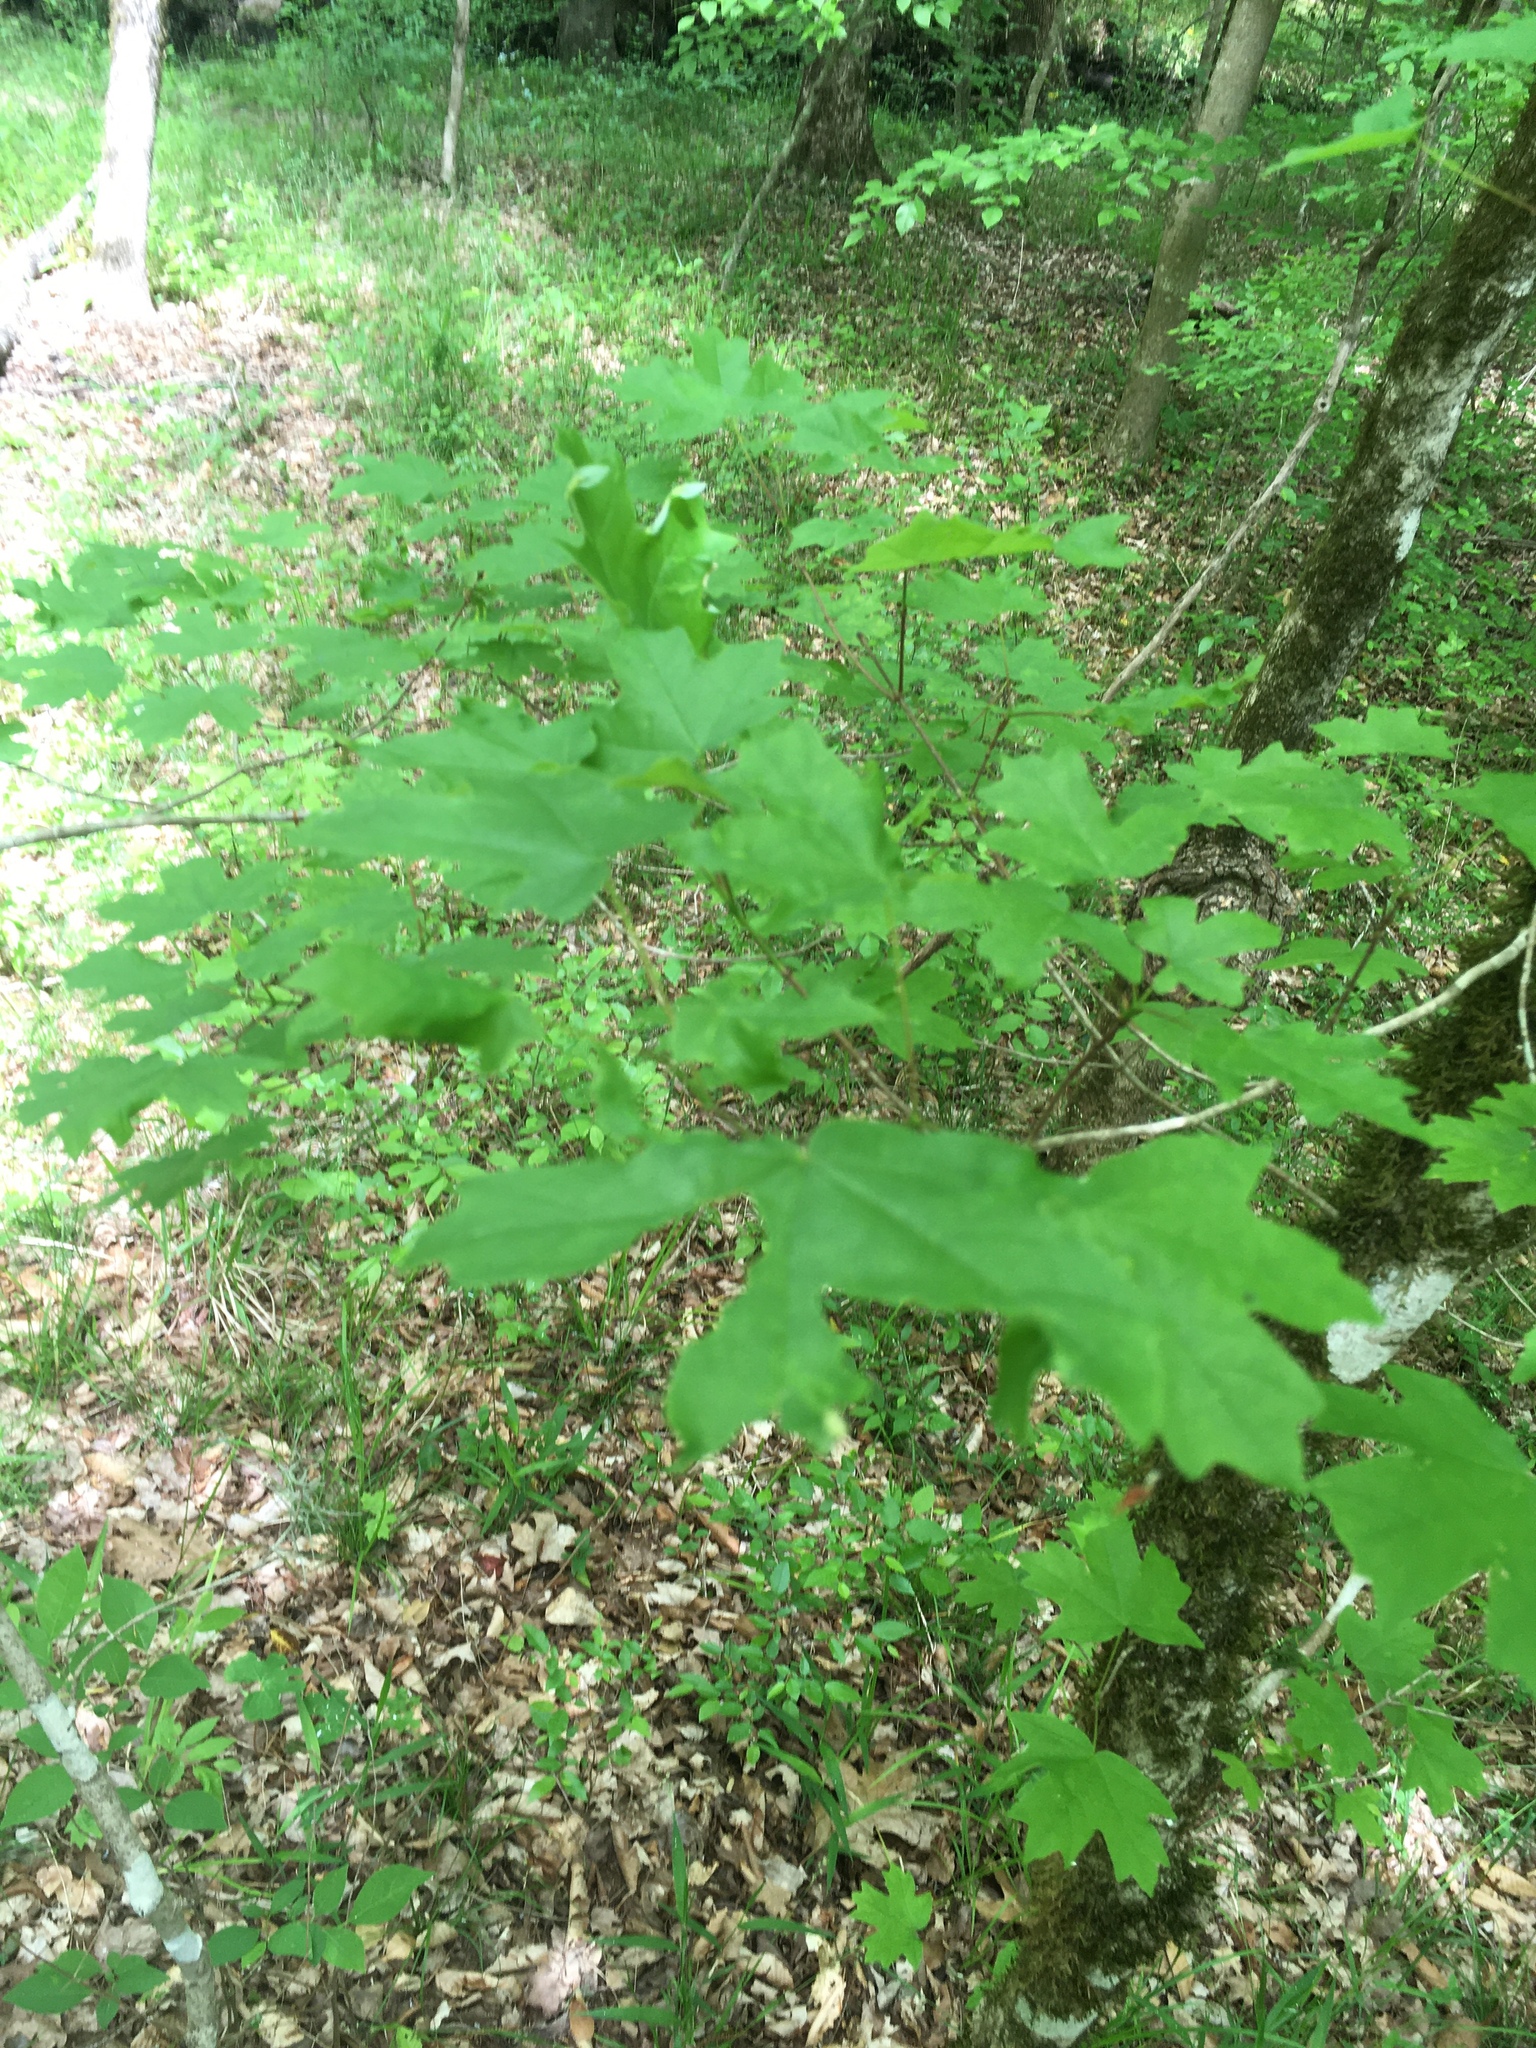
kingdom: Plantae
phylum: Tracheophyta
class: Magnoliopsida
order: Sapindales
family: Sapindaceae
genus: Acer
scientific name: Acer floridanum
